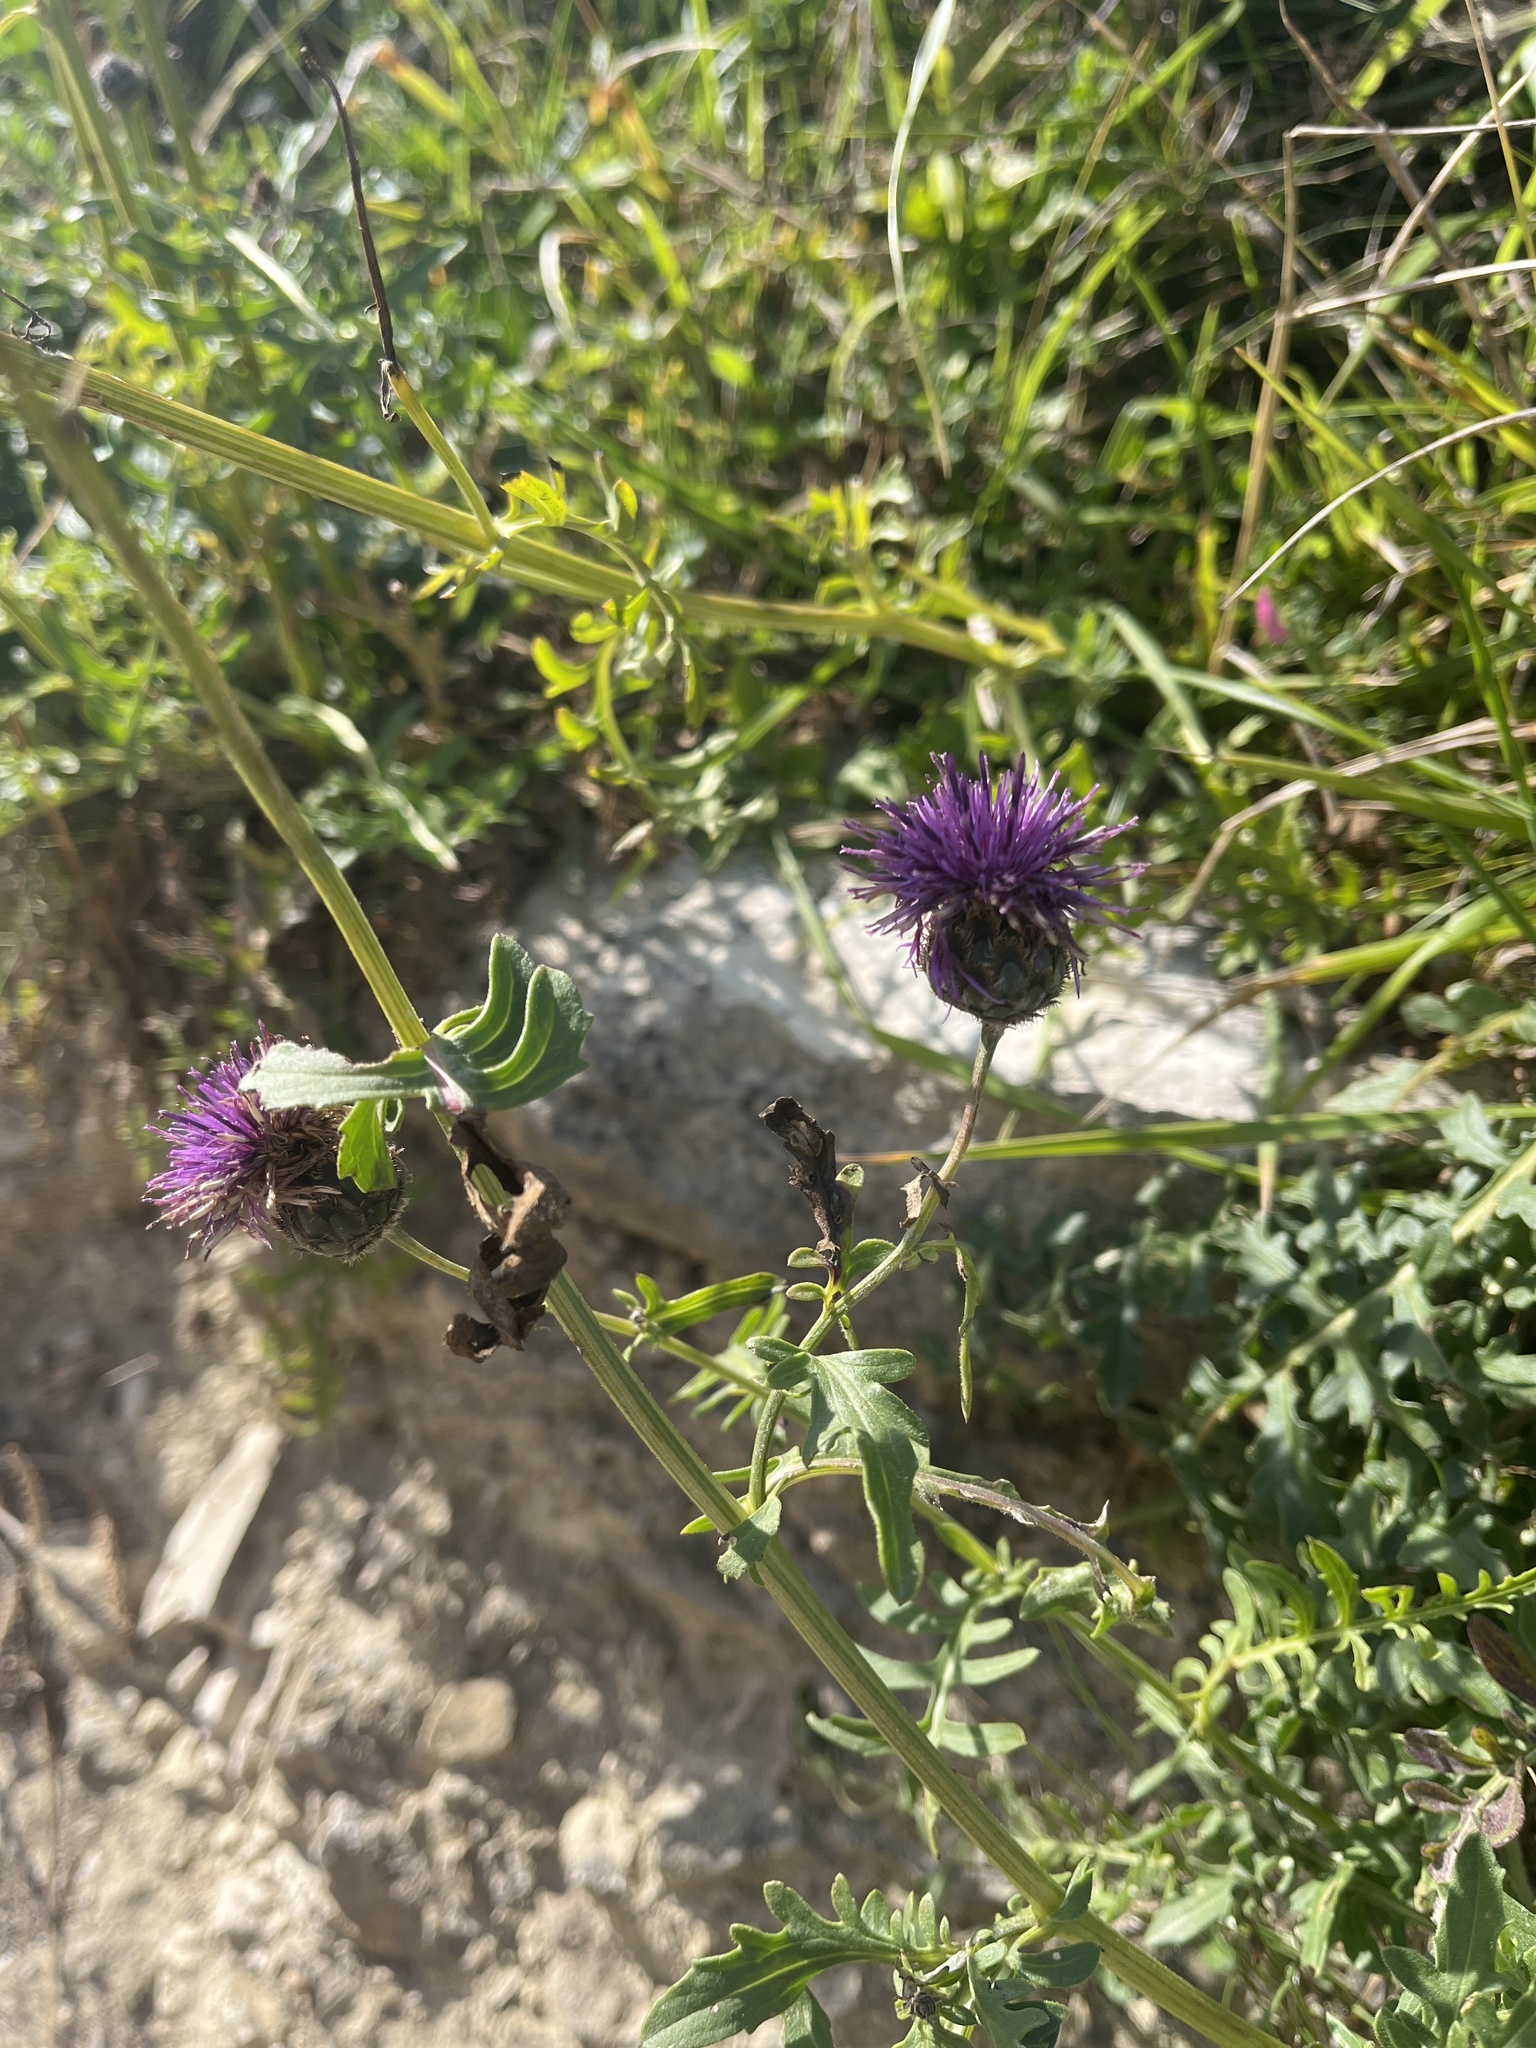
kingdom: Plantae
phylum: Tracheophyta
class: Magnoliopsida
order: Asterales
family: Asteraceae
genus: Centaurea
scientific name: Centaurea scabiosa
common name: Greater knapweed
